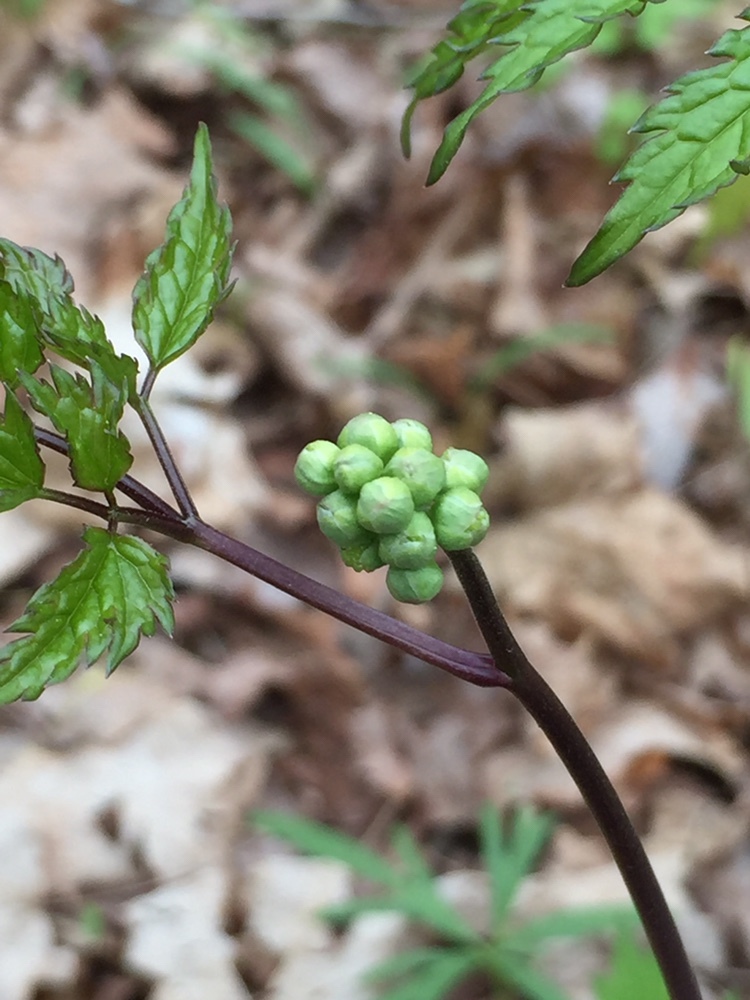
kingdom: Plantae
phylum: Tracheophyta
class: Magnoliopsida
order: Ranunculales
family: Ranunculaceae
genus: Actaea
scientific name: Actaea pachypoda
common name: Doll's-eyes
